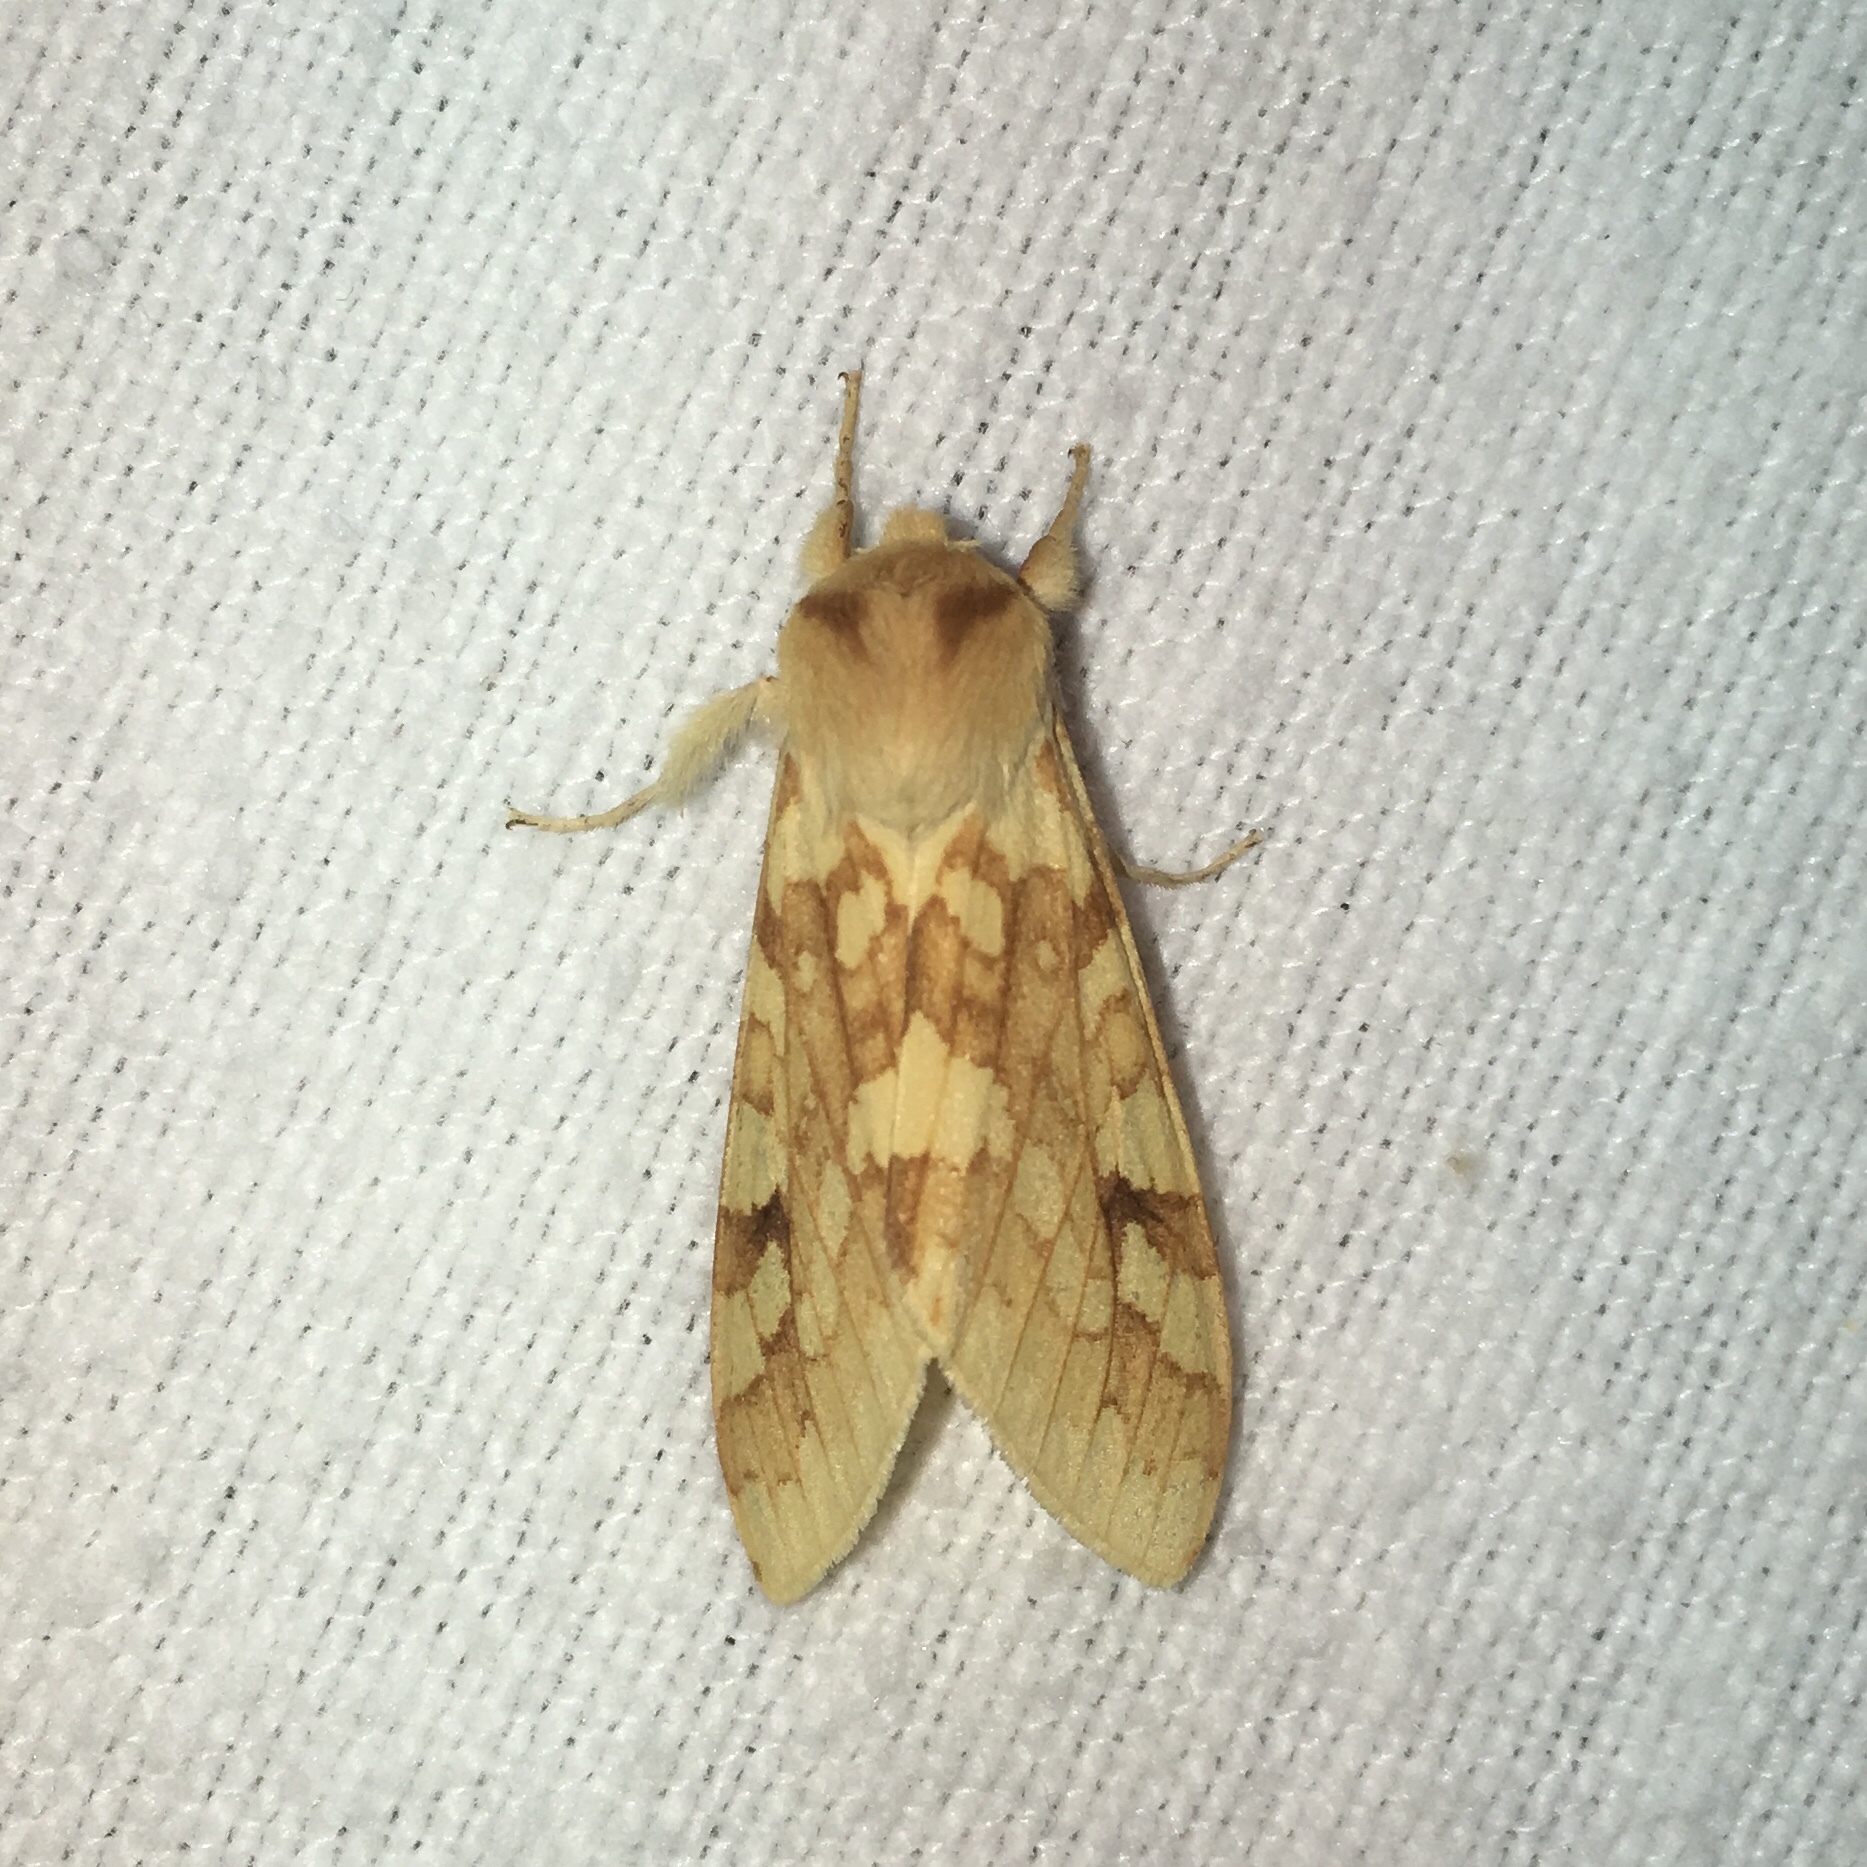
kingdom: Animalia
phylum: Arthropoda
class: Insecta
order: Lepidoptera
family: Erebidae
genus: Lophocampa
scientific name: Lophocampa maculata
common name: Spotted tussock moth
